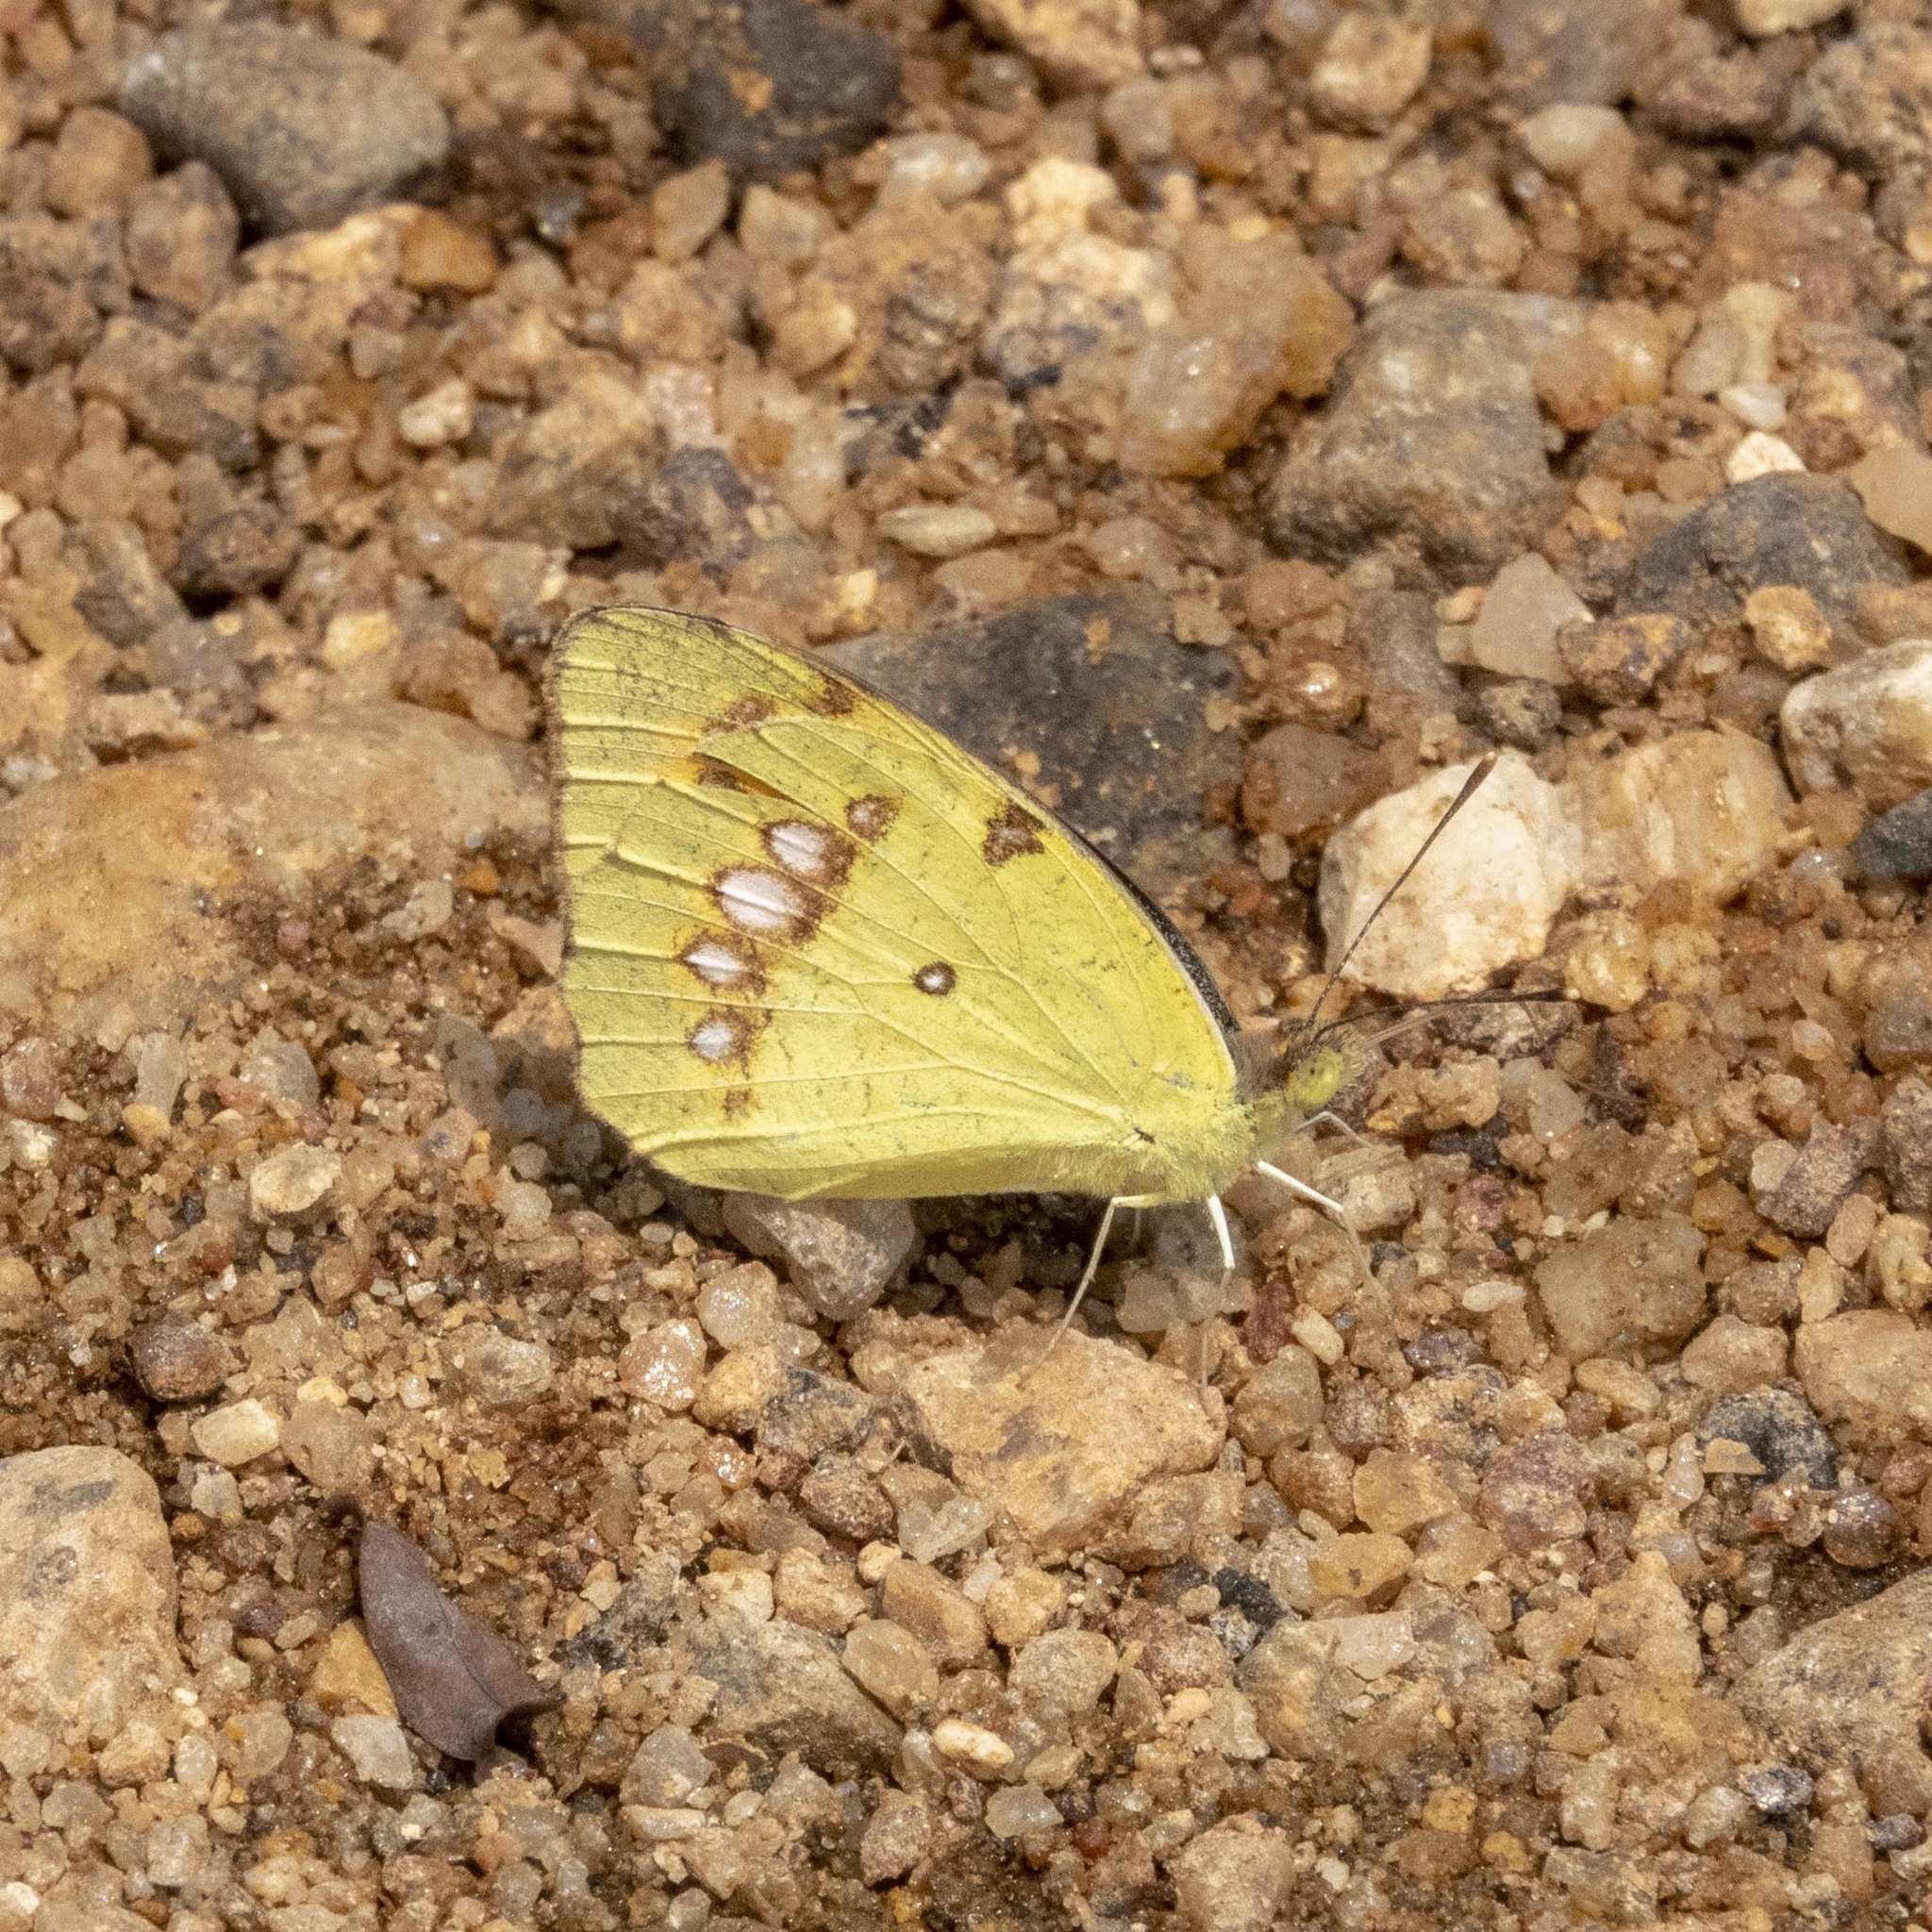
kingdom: Animalia
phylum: Arthropoda
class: Insecta
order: Lepidoptera
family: Pieridae
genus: Ixias
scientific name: Ixias marianne
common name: White orange tip
